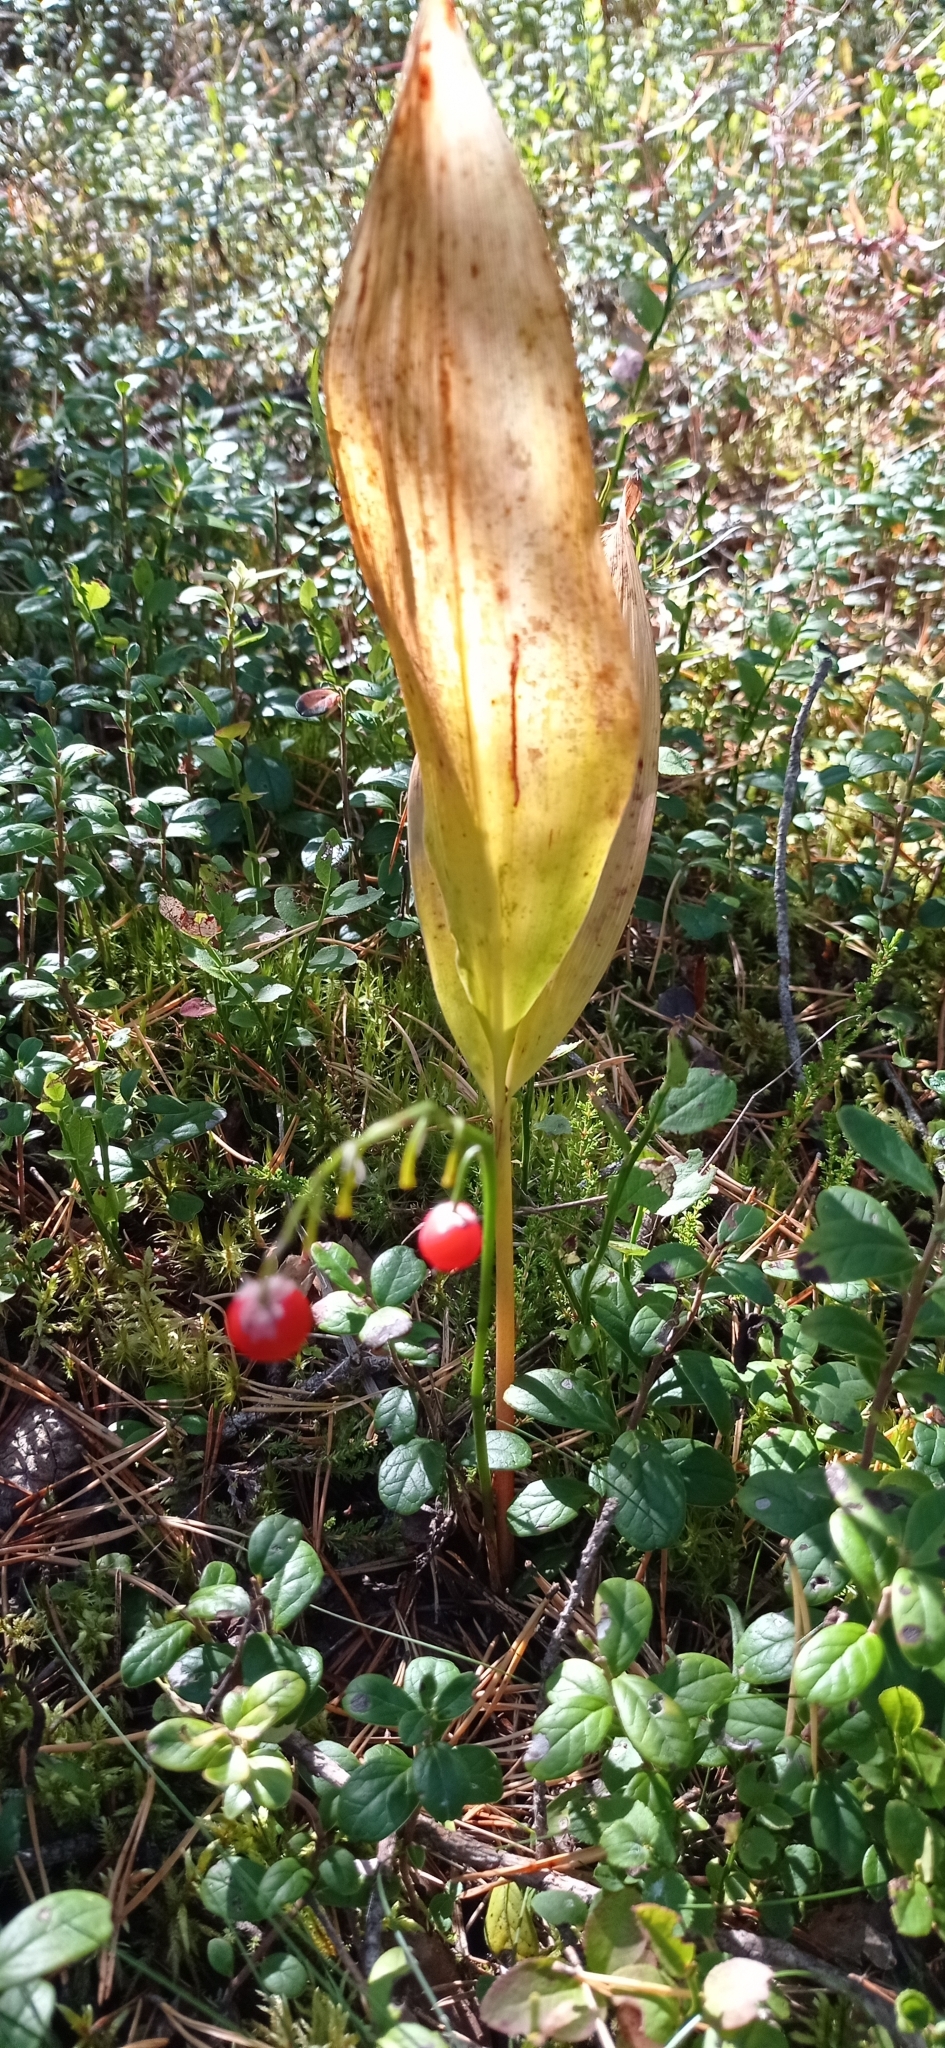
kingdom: Plantae
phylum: Tracheophyta
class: Liliopsida
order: Asparagales
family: Asparagaceae
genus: Convallaria
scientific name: Convallaria majalis
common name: Lily-of-the-valley
